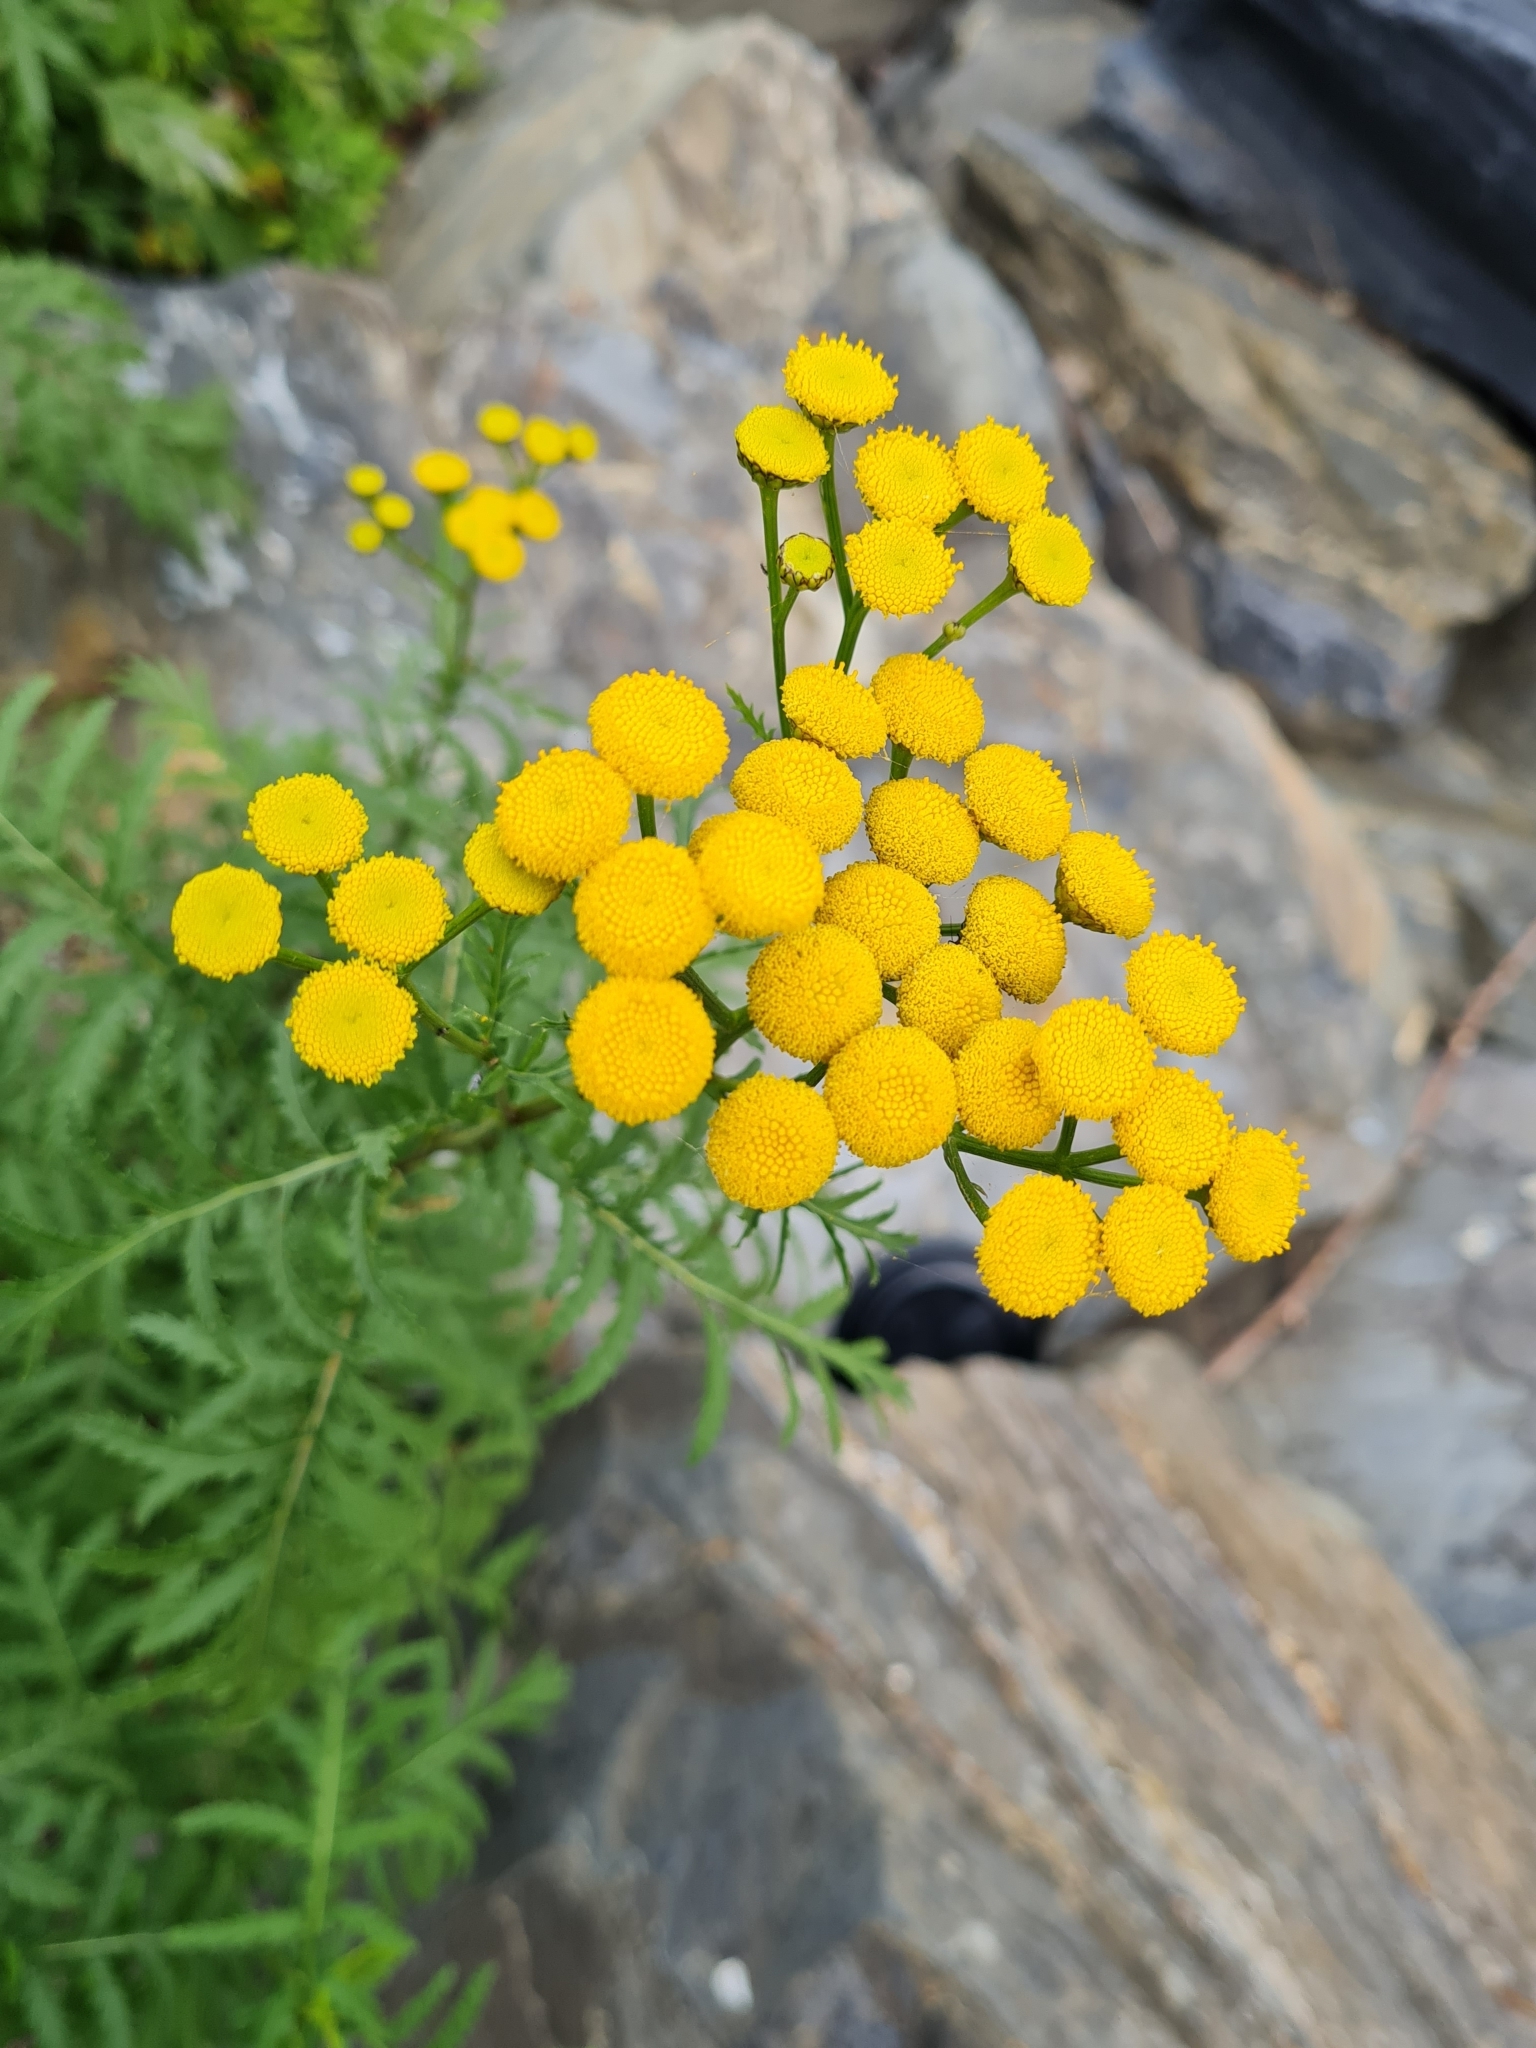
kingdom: Plantae
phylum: Tracheophyta
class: Magnoliopsida
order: Asterales
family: Asteraceae
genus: Tanacetum
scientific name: Tanacetum vulgare
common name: Common tansy
